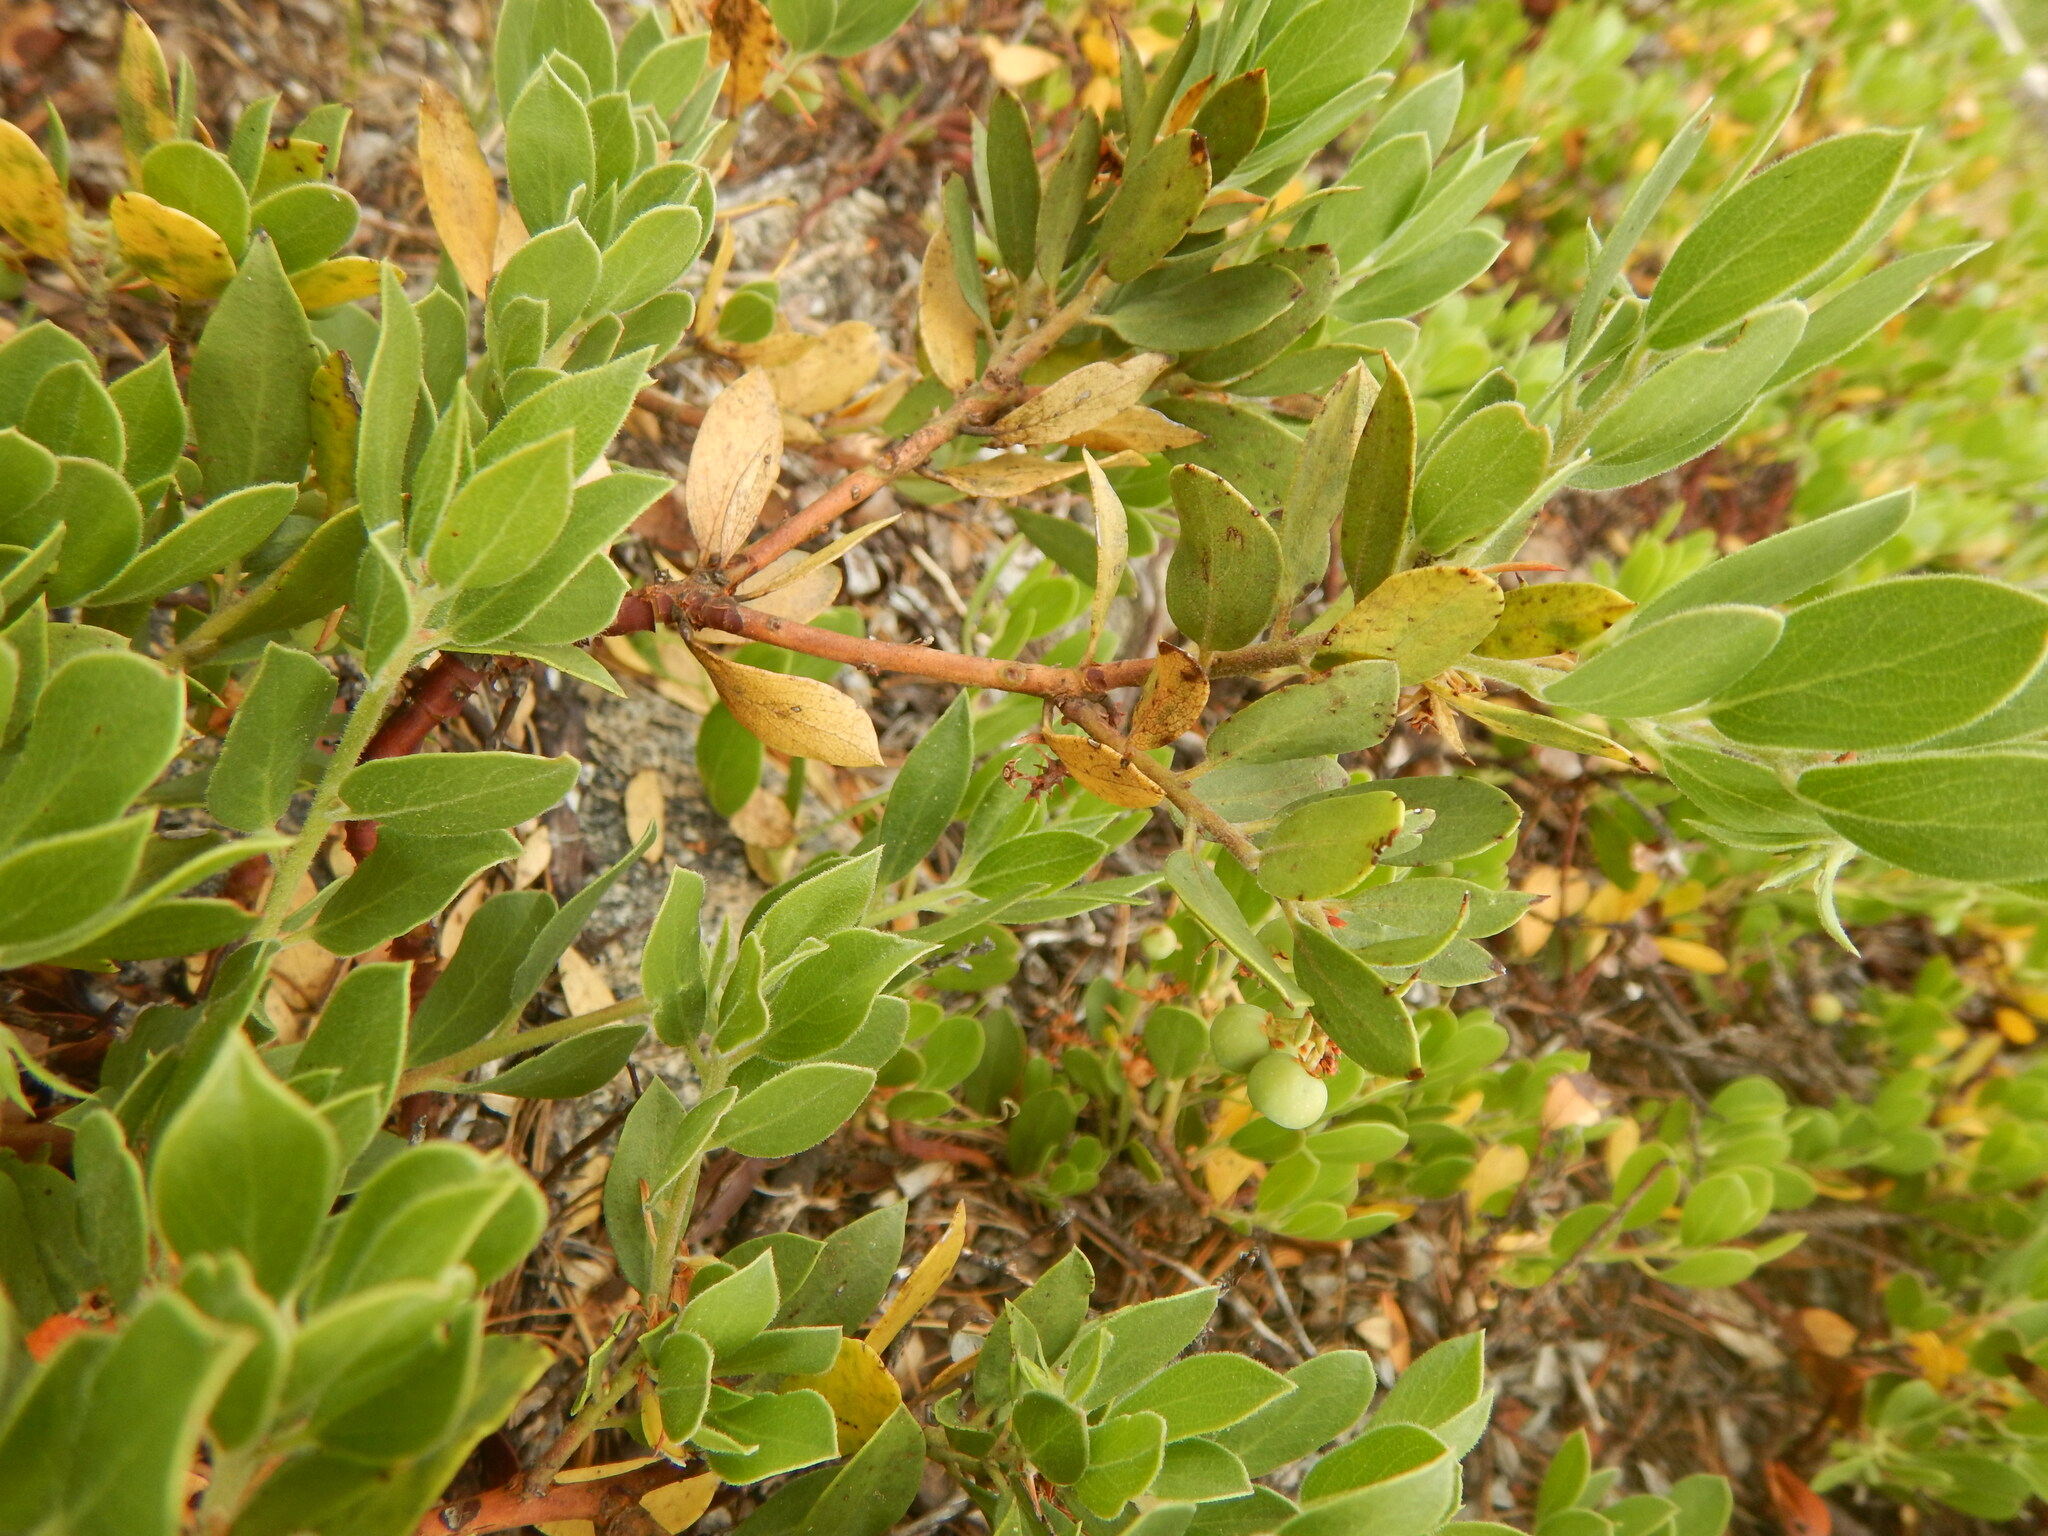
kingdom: Plantae
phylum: Tracheophyta
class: Magnoliopsida
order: Ericales
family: Ericaceae
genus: Arctostaphylos
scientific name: Arctostaphylos nevadensis
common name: Pinemat manzanita
